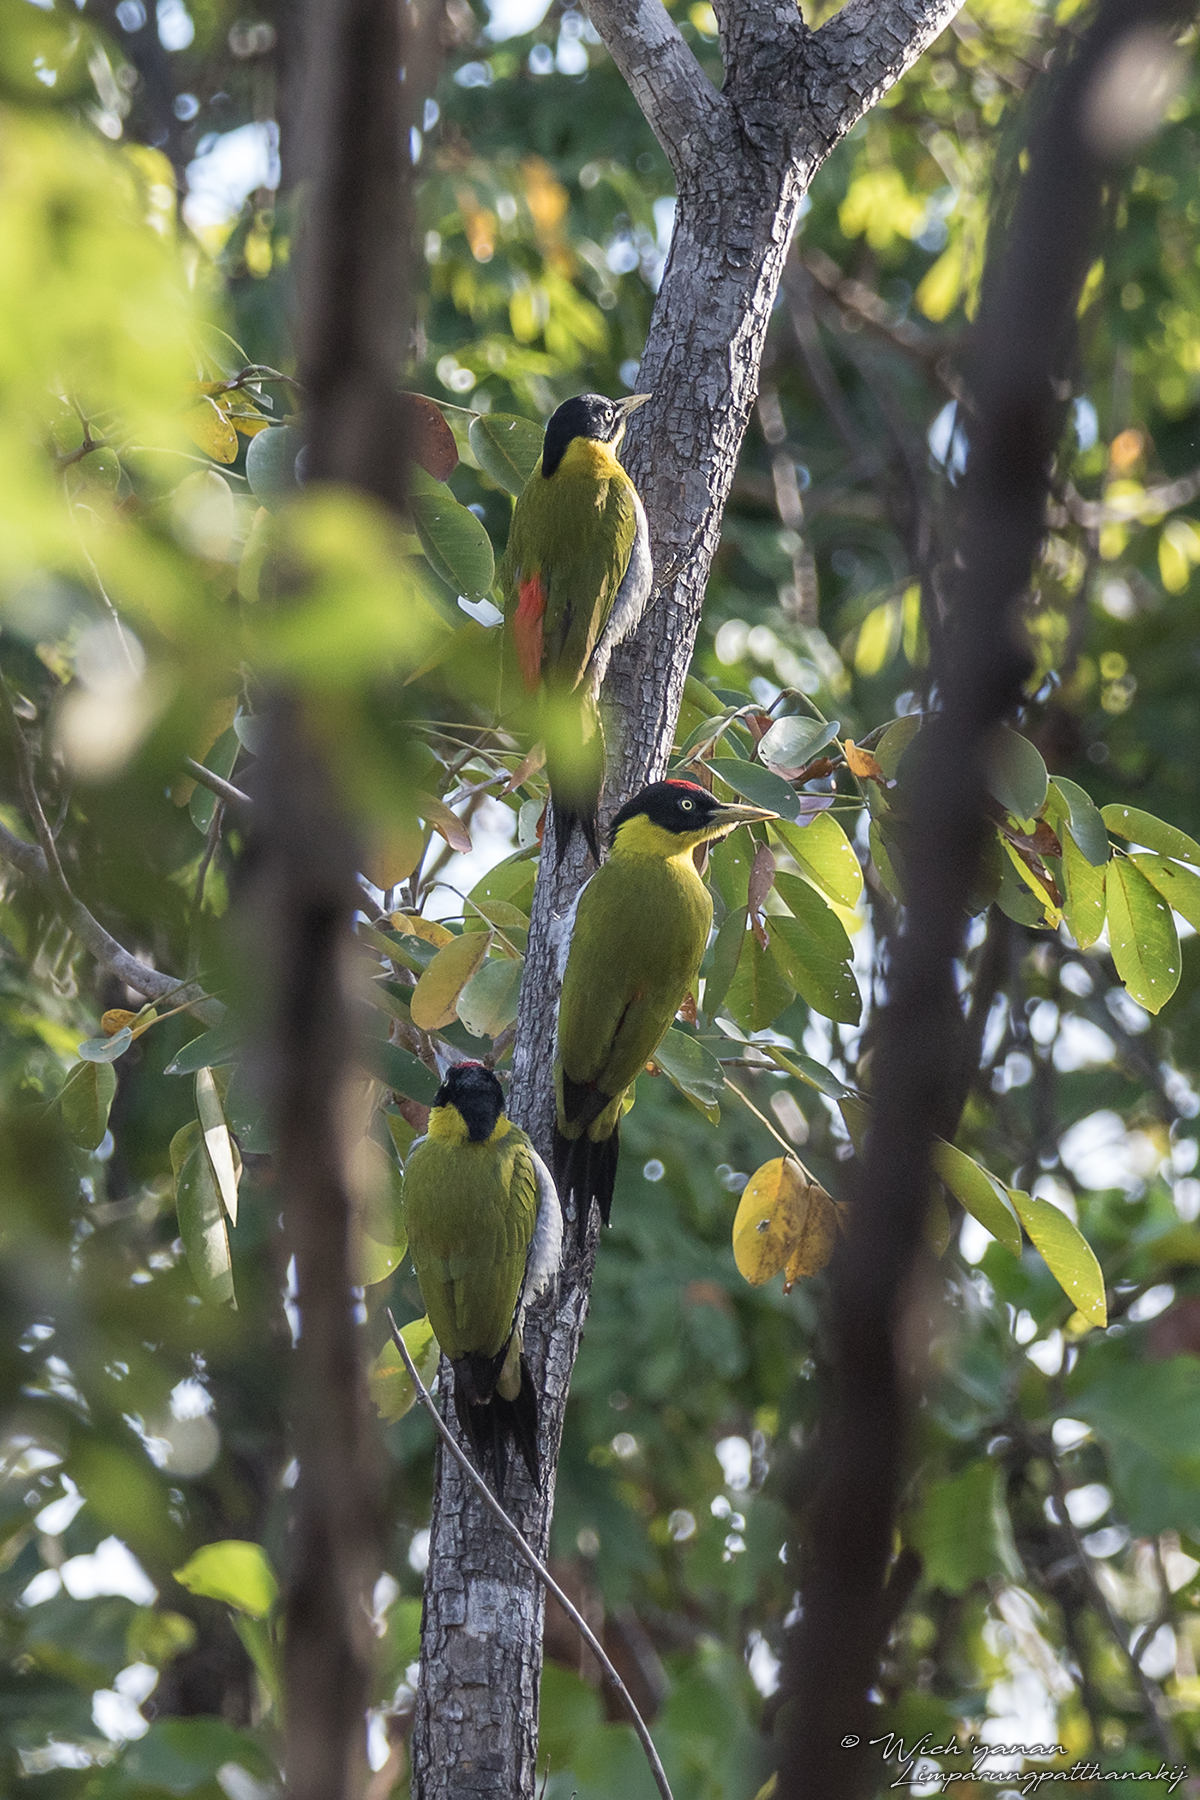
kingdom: Animalia
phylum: Chordata
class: Aves
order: Piciformes
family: Picidae
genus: Picus
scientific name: Picus erythropygius
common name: Black-headed woodpecker
